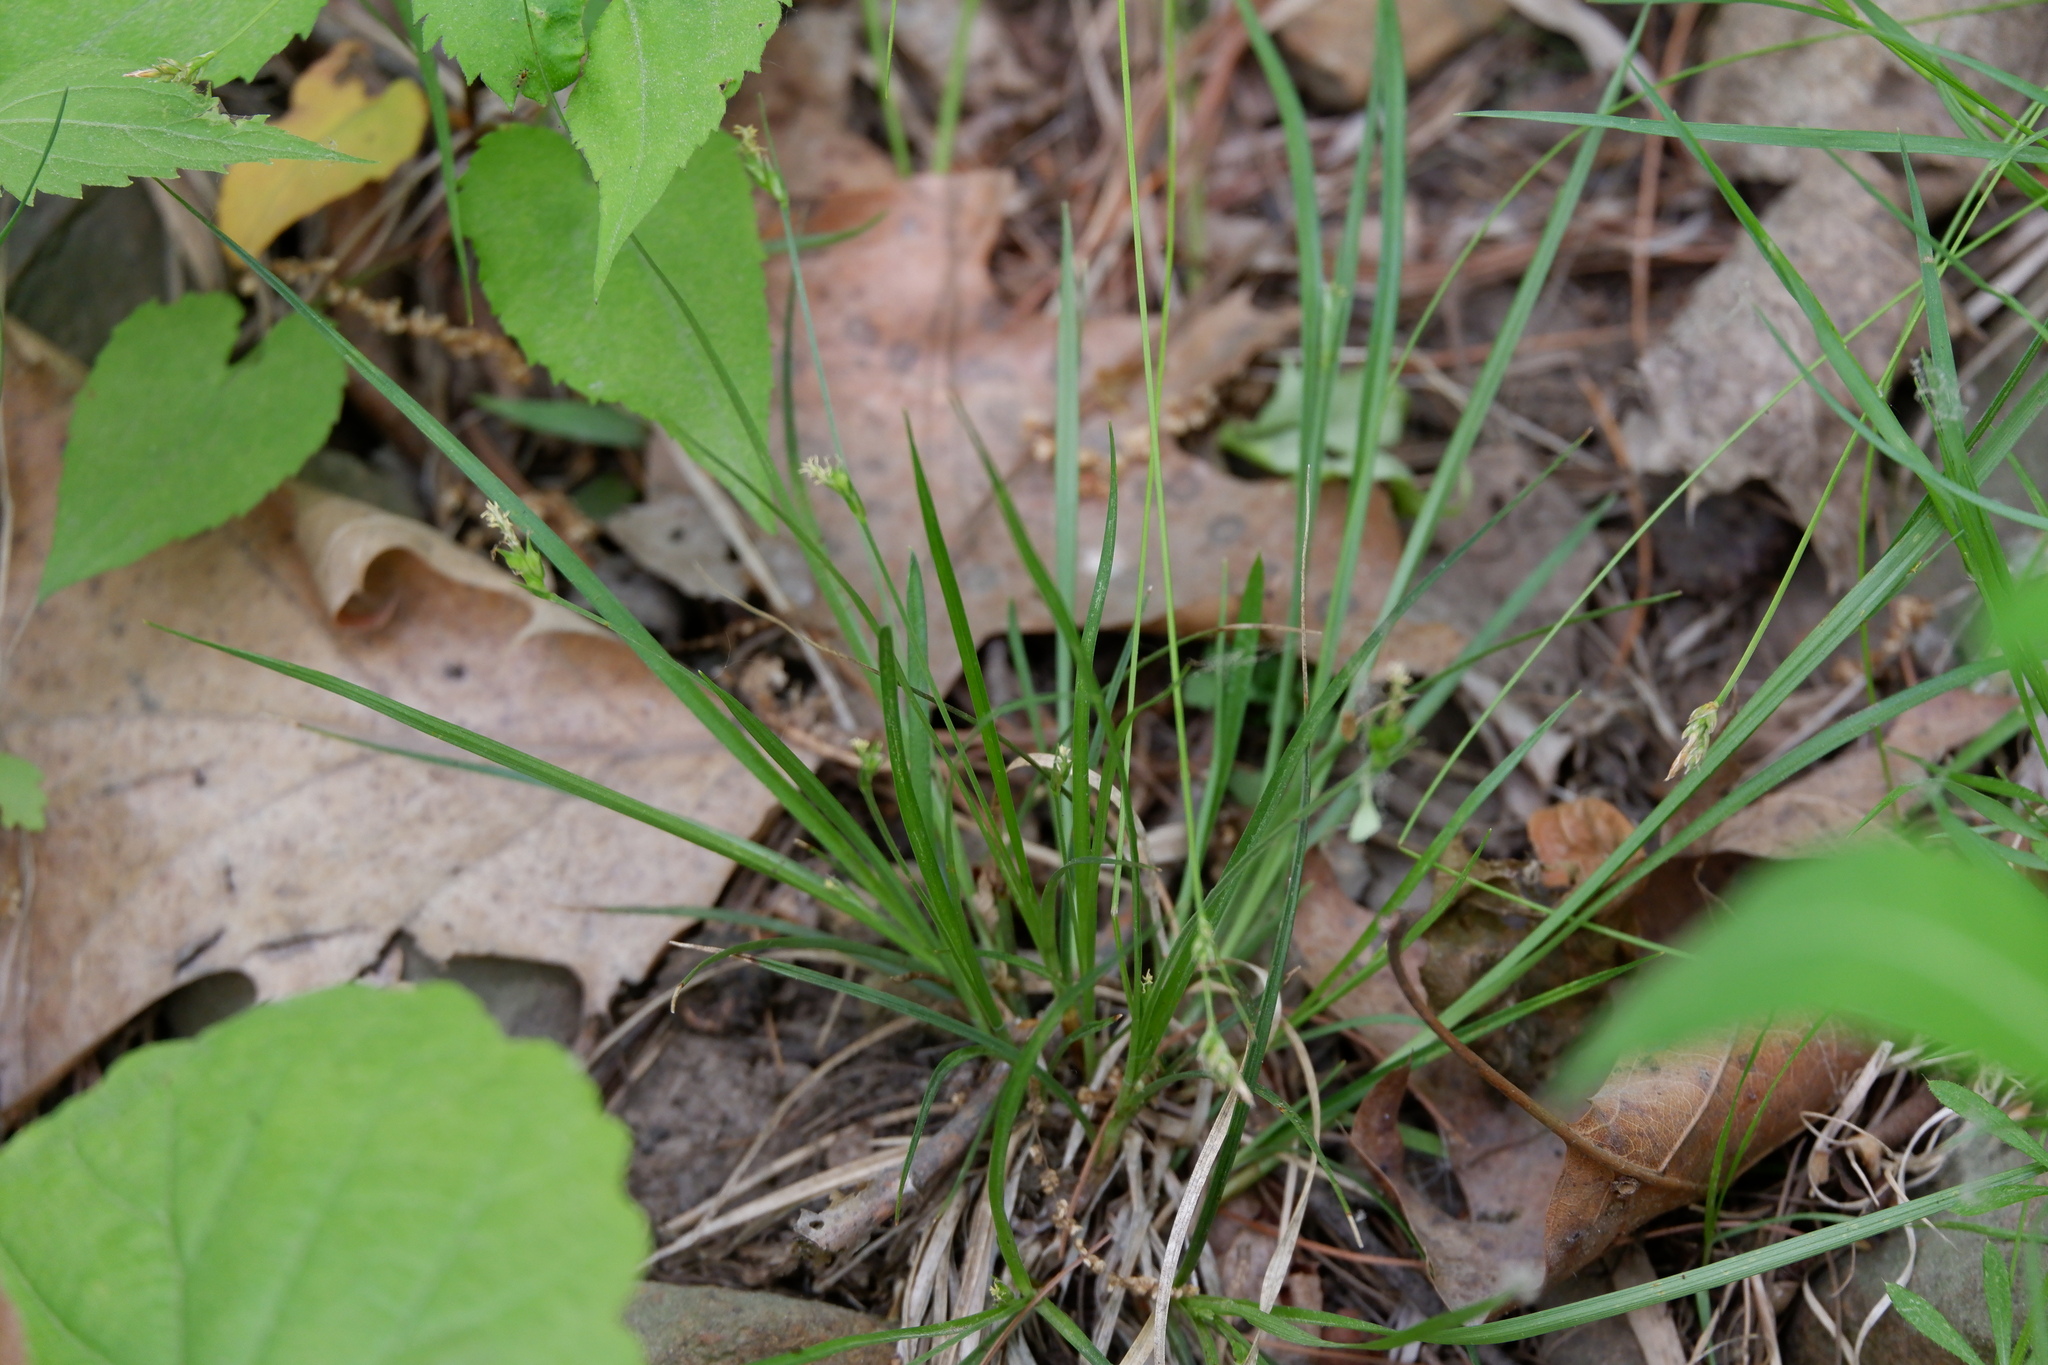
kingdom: Plantae
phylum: Tracheophyta
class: Liliopsida
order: Poales
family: Cyperaceae
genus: Carex
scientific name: Carex willdenowii
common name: Willdenow's sedge
